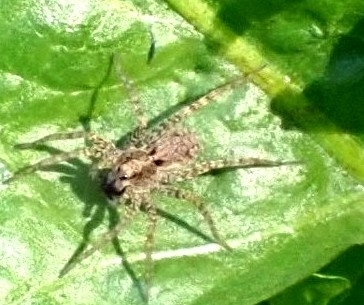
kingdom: Animalia
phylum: Arthropoda
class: Arachnida
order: Araneae
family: Lycosidae
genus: Pardosa
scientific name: Pardosa
